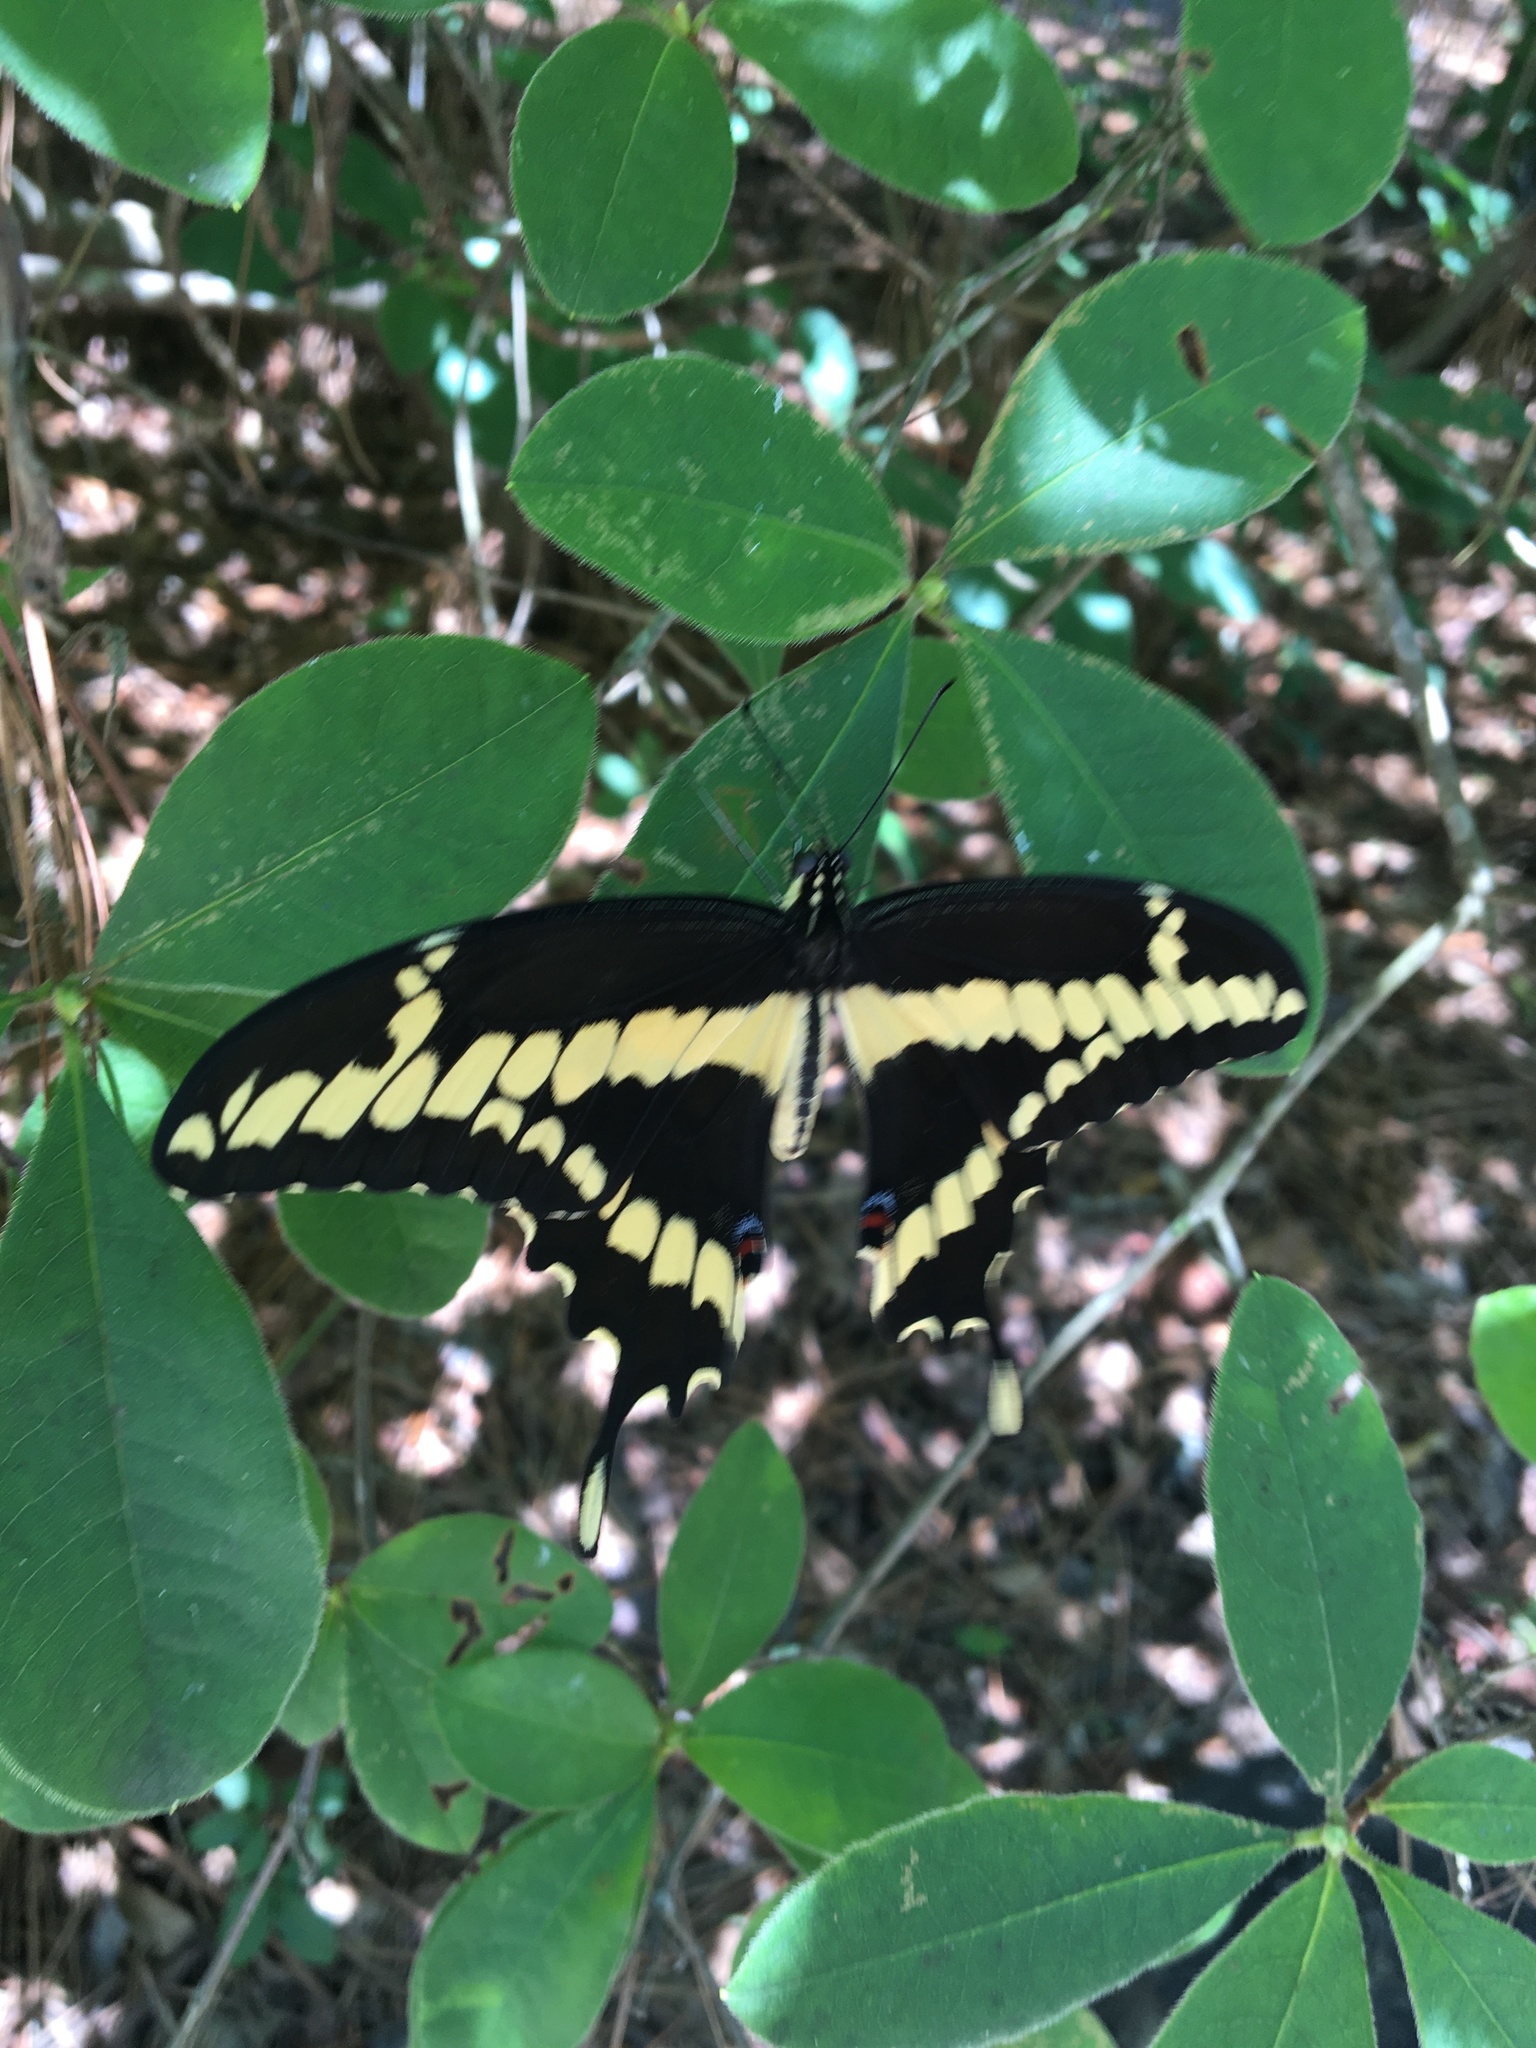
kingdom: Animalia
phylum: Arthropoda
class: Insecta
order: Lepidoptera
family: Papilionidae
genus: Papilio
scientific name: Papilio cresphontes
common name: Giant swallowtail
